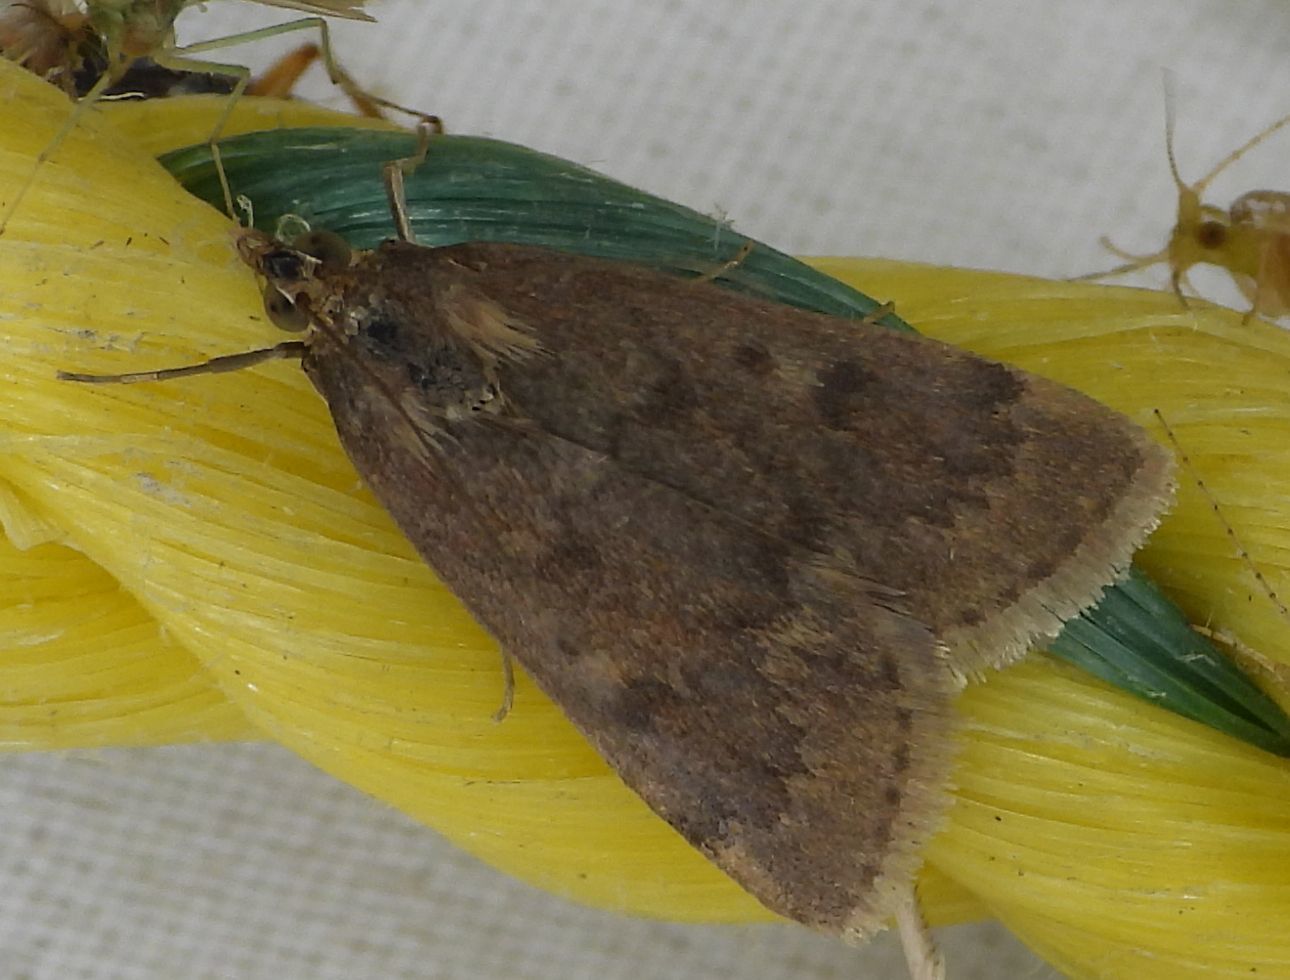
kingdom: Animalia
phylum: Arthropoda
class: Insecta
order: Lepidoptera
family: Crambidae
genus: Achyra
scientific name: Achyra rantalis
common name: Garden webworm
